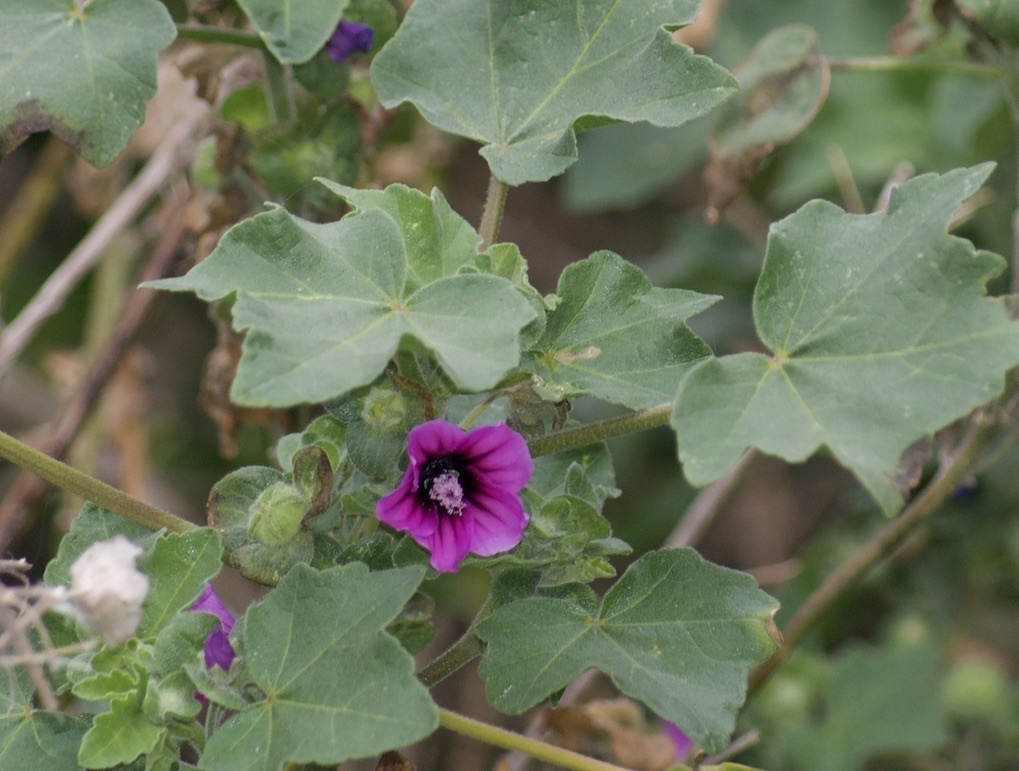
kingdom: Plantae
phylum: Tracheophyta
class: Magnoliopsida
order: Malvales
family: Malvaceae
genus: Malva
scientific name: Malva arborea
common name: Tree mallow
